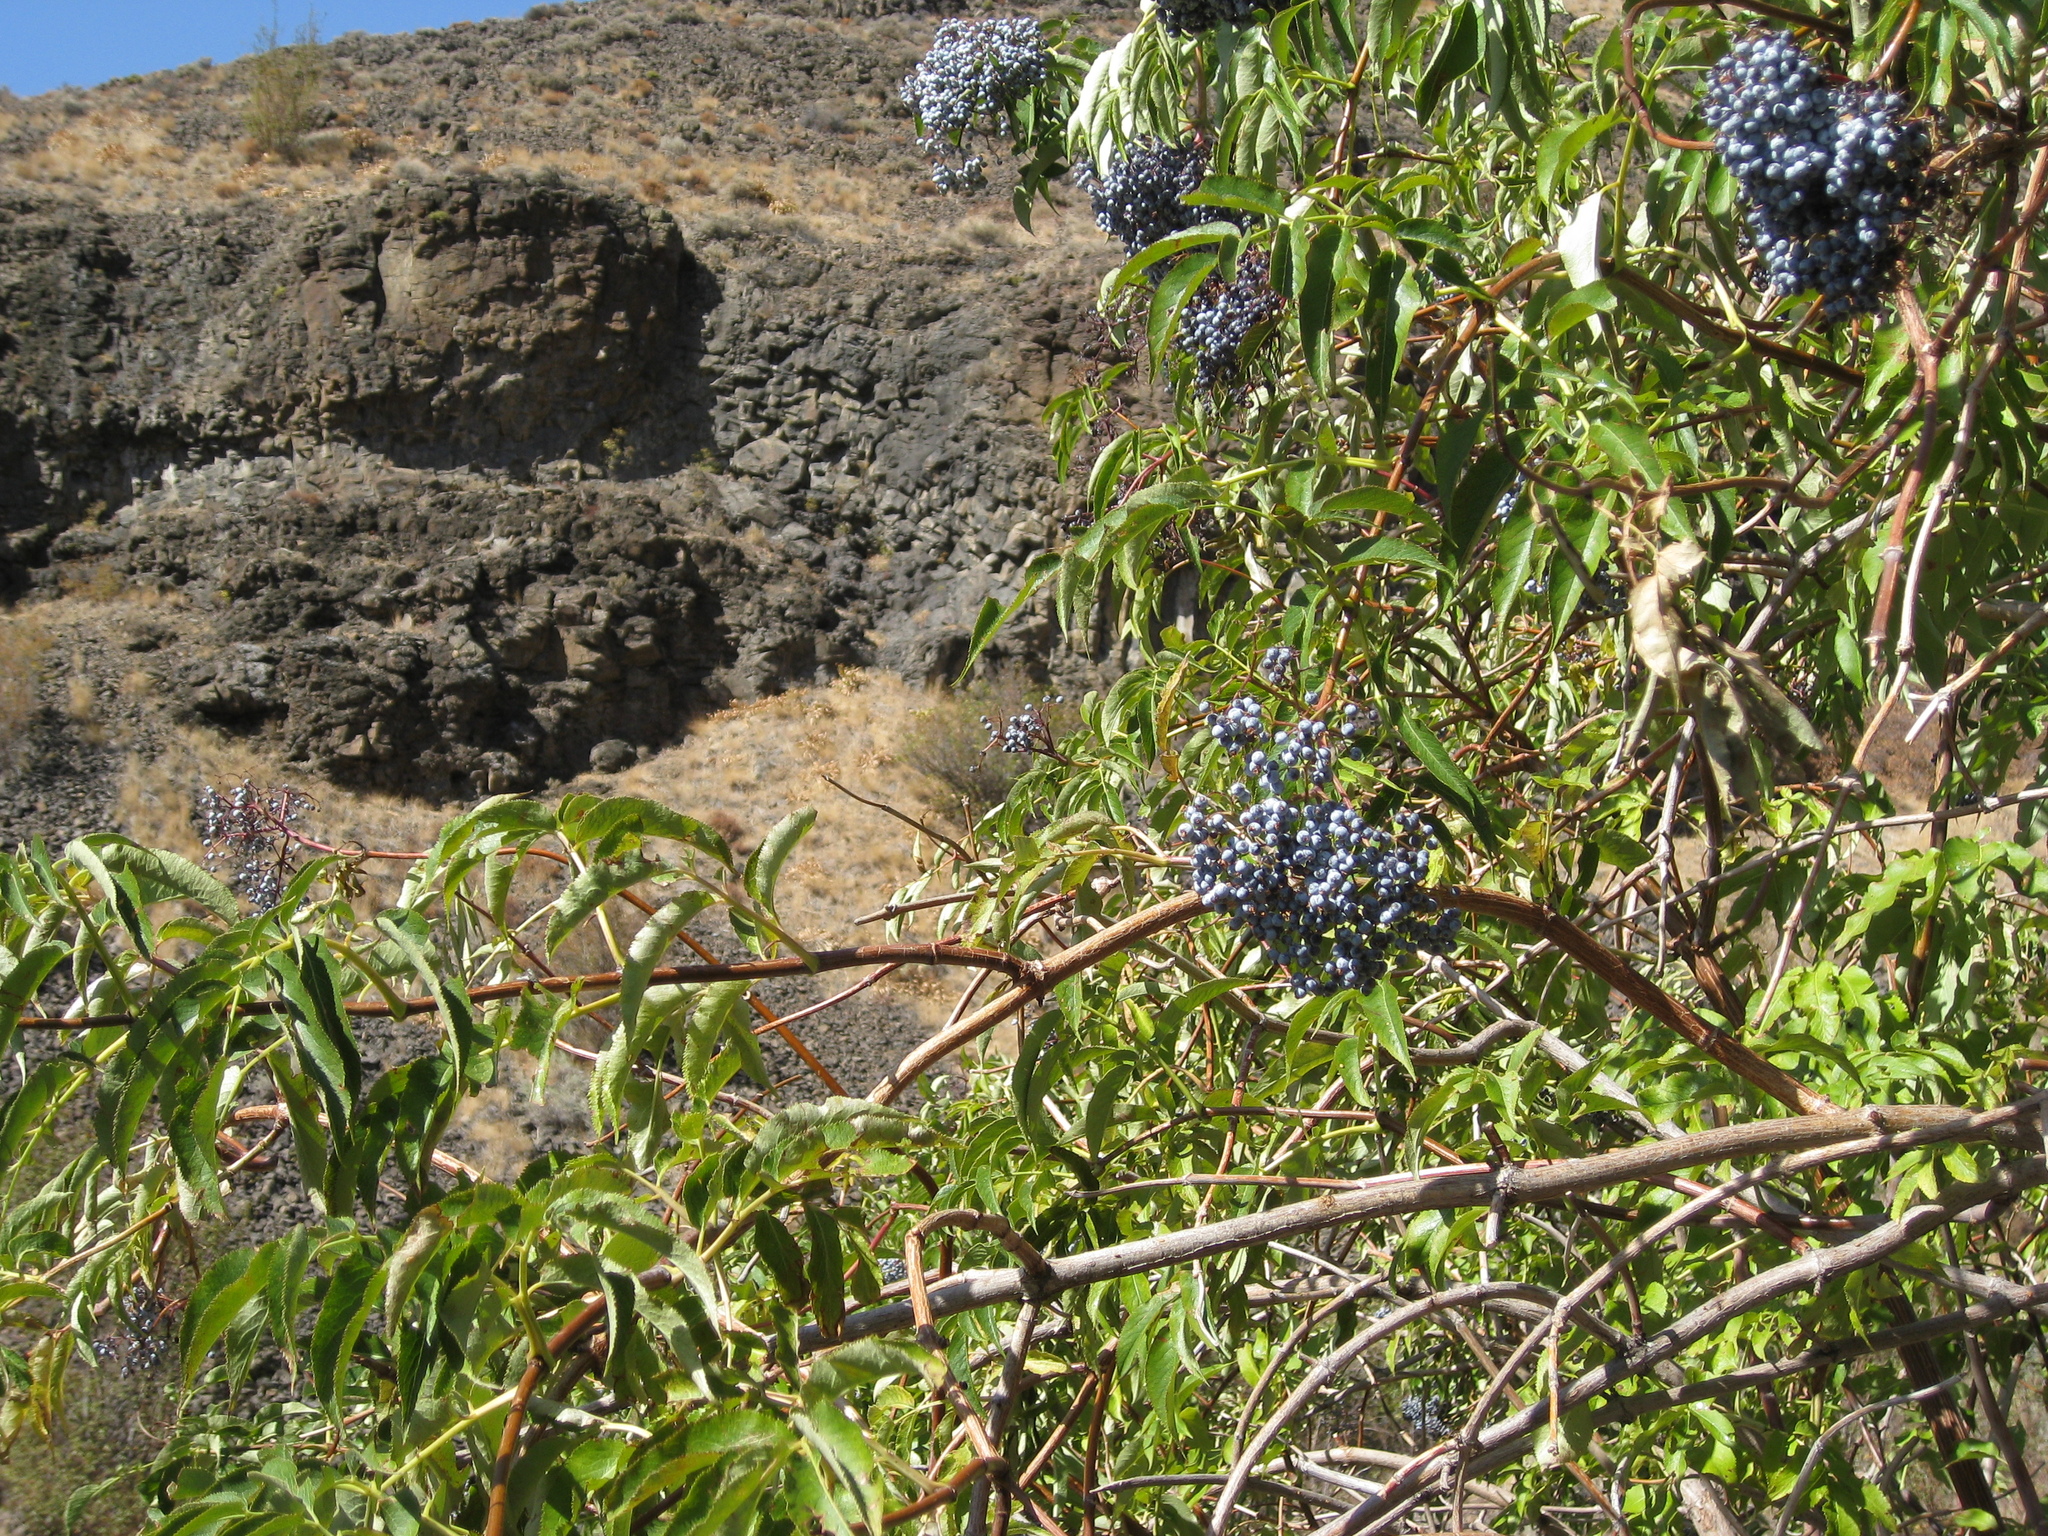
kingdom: Plantae
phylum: Tracheophyta
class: Magnoliopsida
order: Dipsacales
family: Viburnaceae
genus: Sambucus
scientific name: Sambucus cerulea
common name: Blue elder
